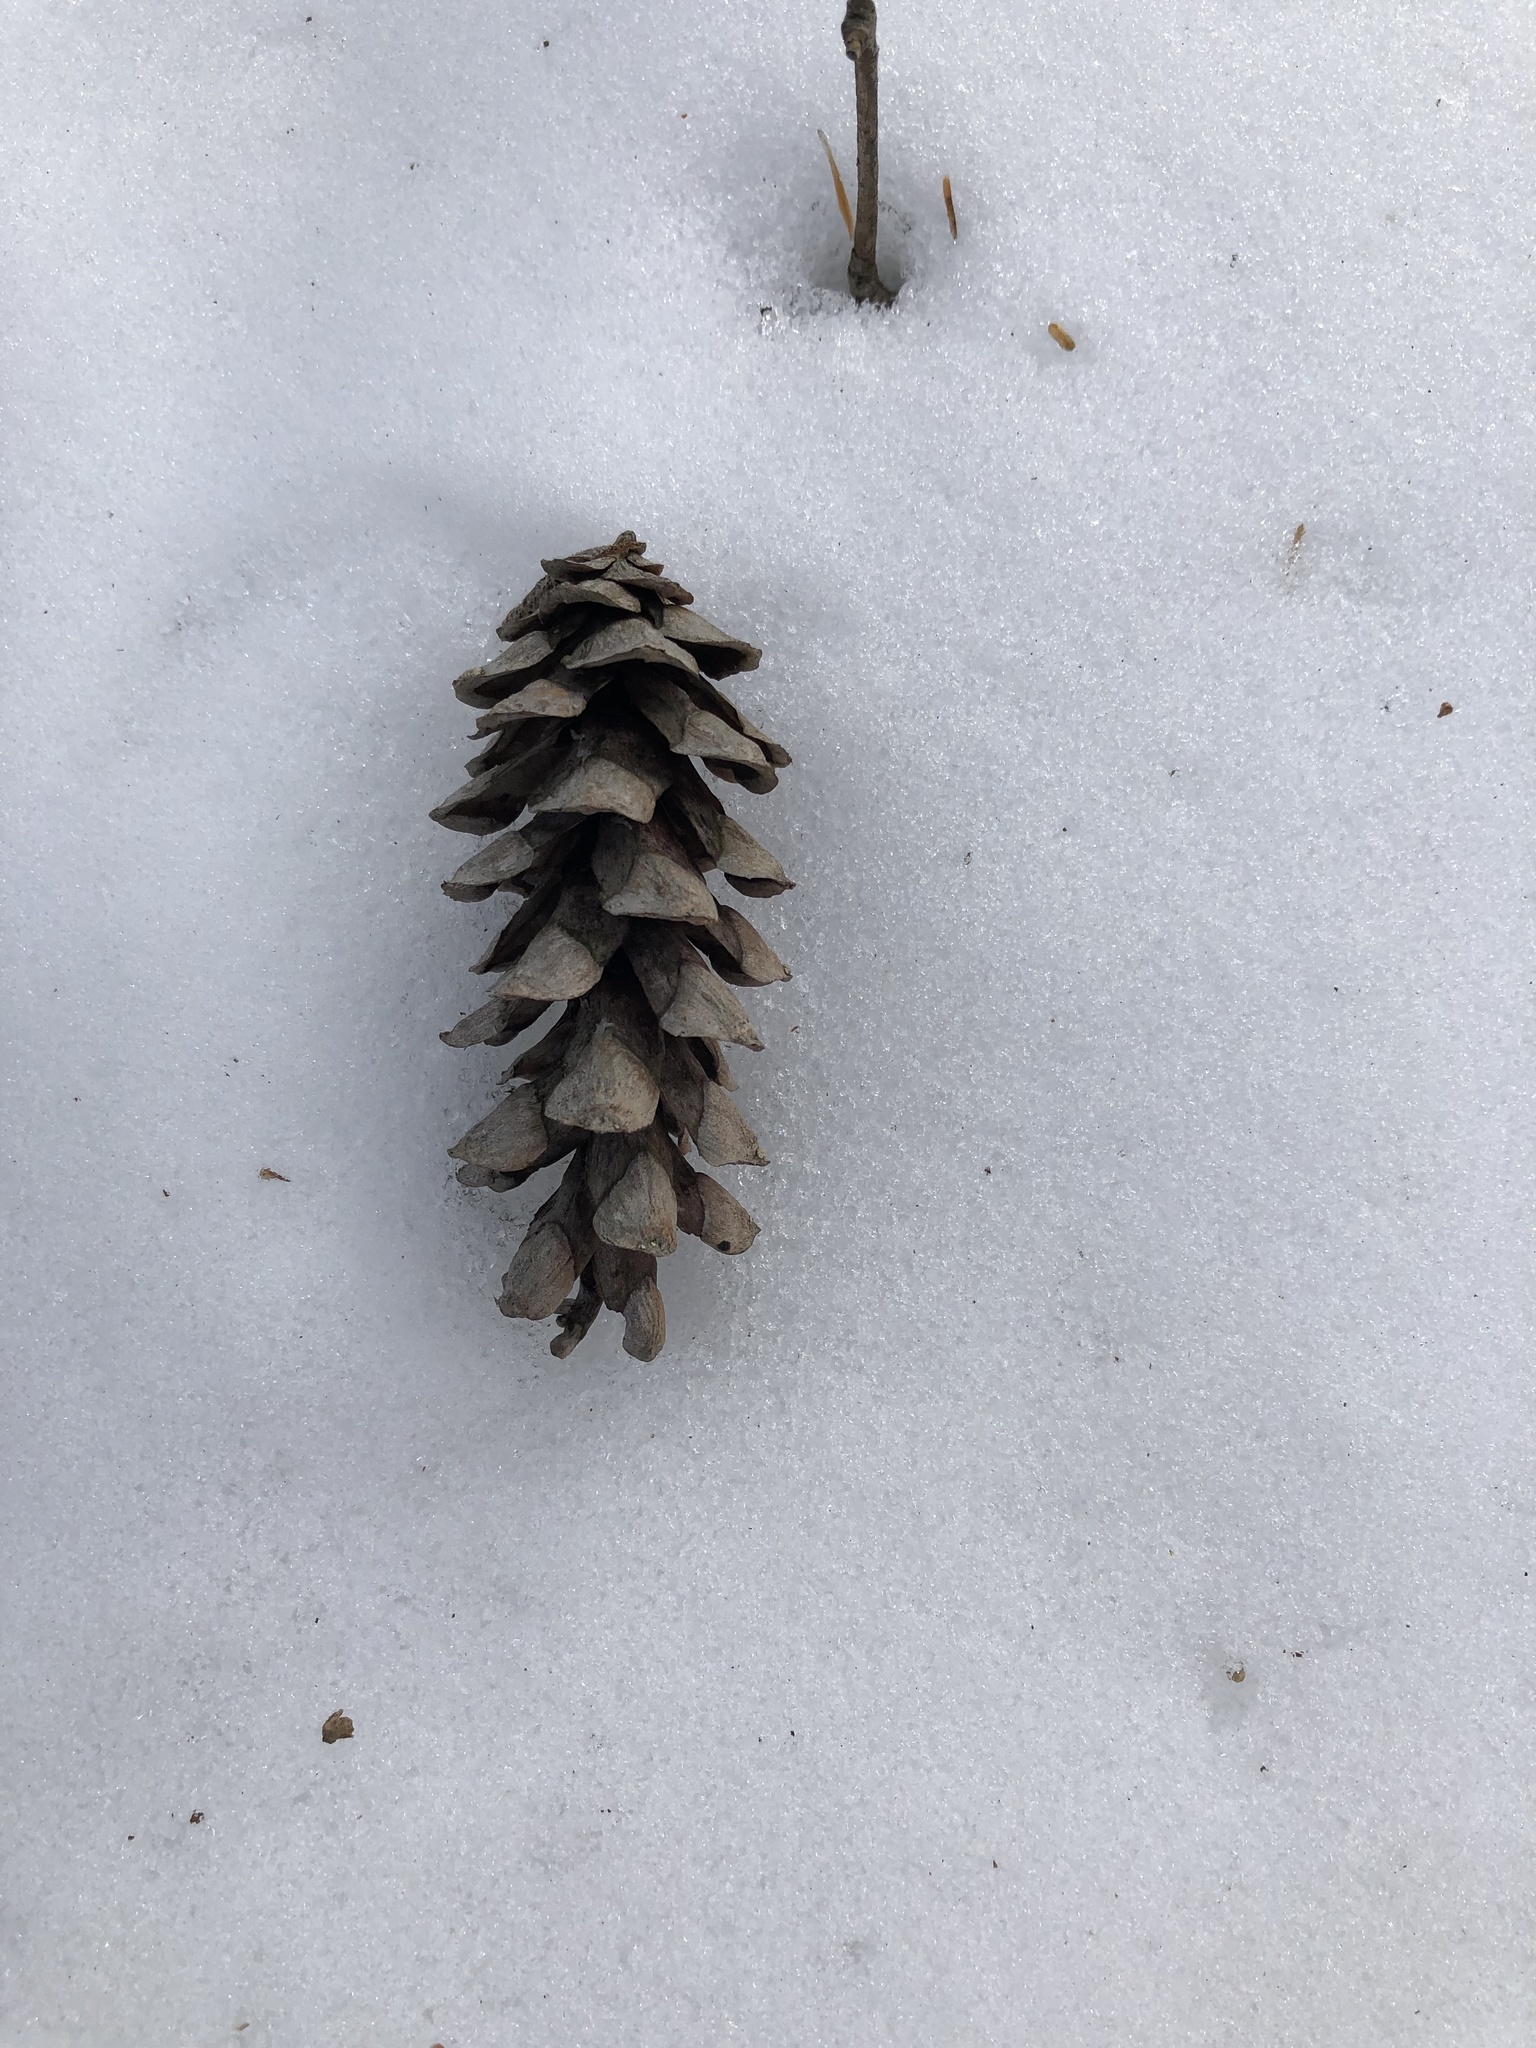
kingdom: Plantae
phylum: Tracheophyta
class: Pinopsida
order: Pinales
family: Pinaceae
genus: Pinus
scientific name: Pinus strobus
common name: Weymouth pine
